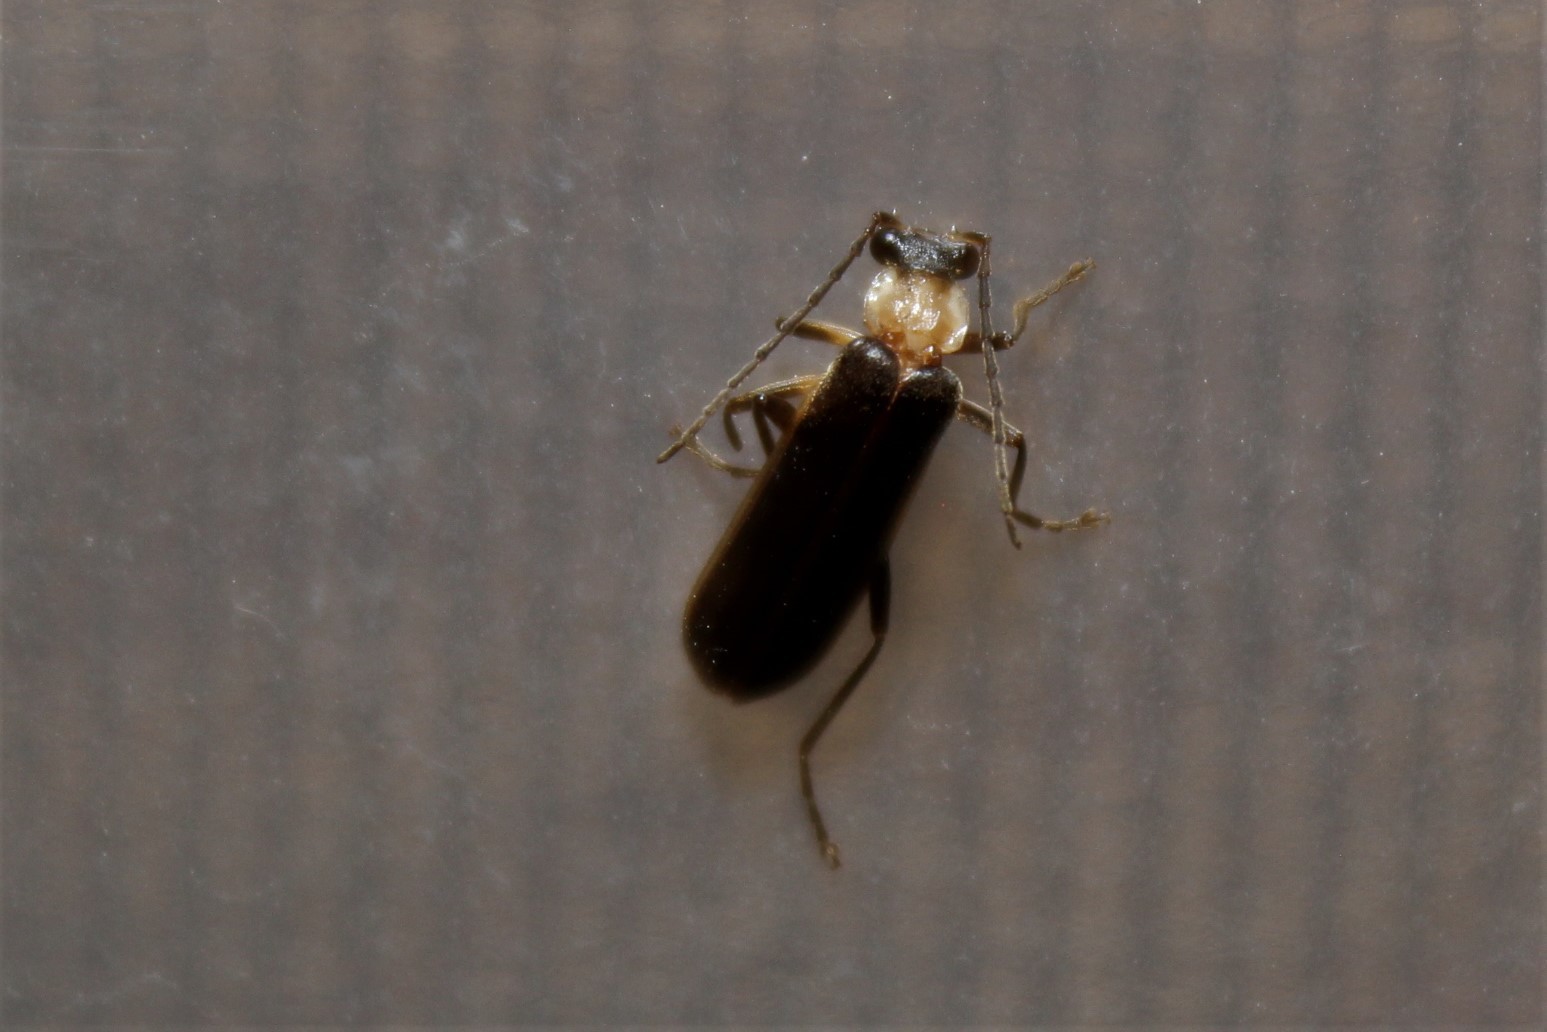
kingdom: Animalia
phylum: Arthropoda
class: Insecta
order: Coleoptera
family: Cantharidae
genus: Podabrus
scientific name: Podabrus flavicollis
